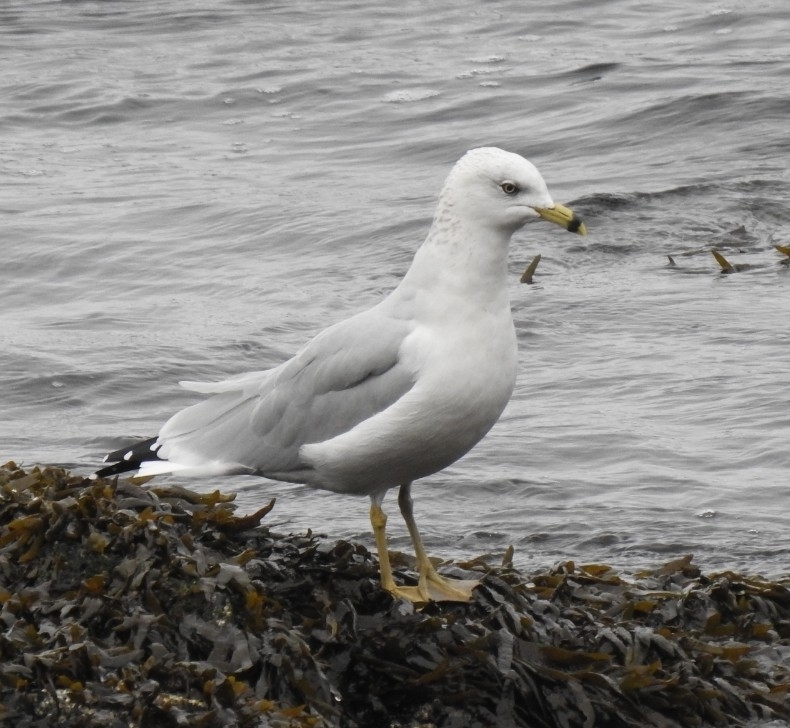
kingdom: Animalia
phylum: Chordata
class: Aves
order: Charadriiformes
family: Laridae
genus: Larus
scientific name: Larus delawarensis
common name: Ring-billed gull
